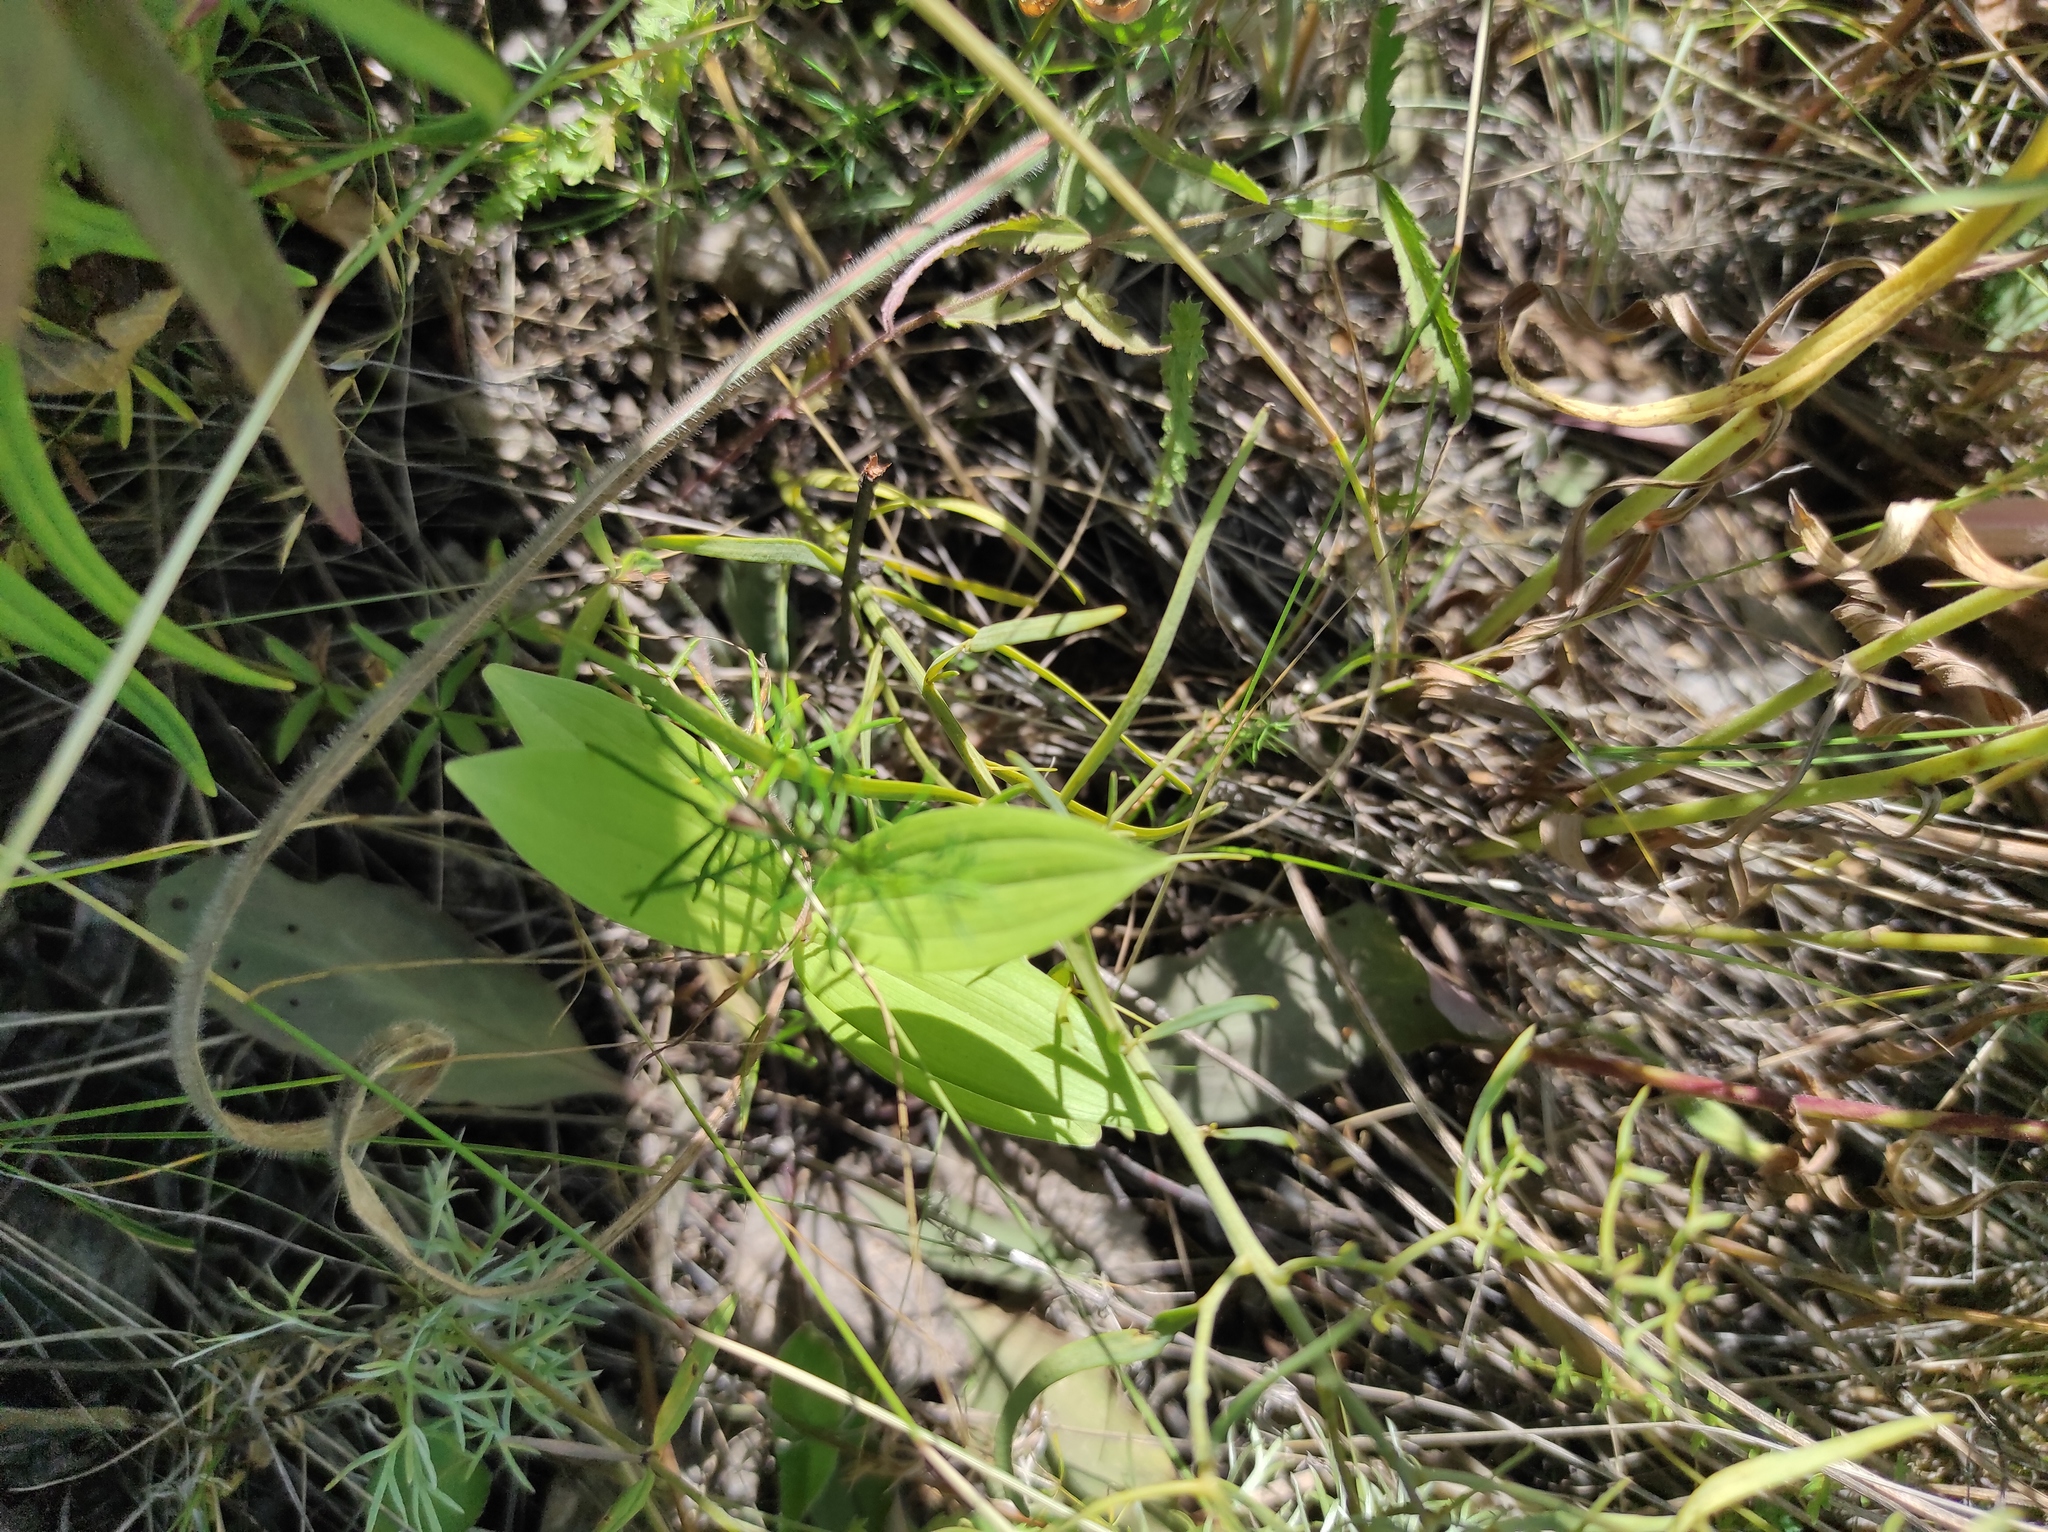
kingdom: Plantae
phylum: Tracheophyta
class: Liliopsida
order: Asparagales
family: Asparagaceae
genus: Polygonatum
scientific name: Polygonatum humile
